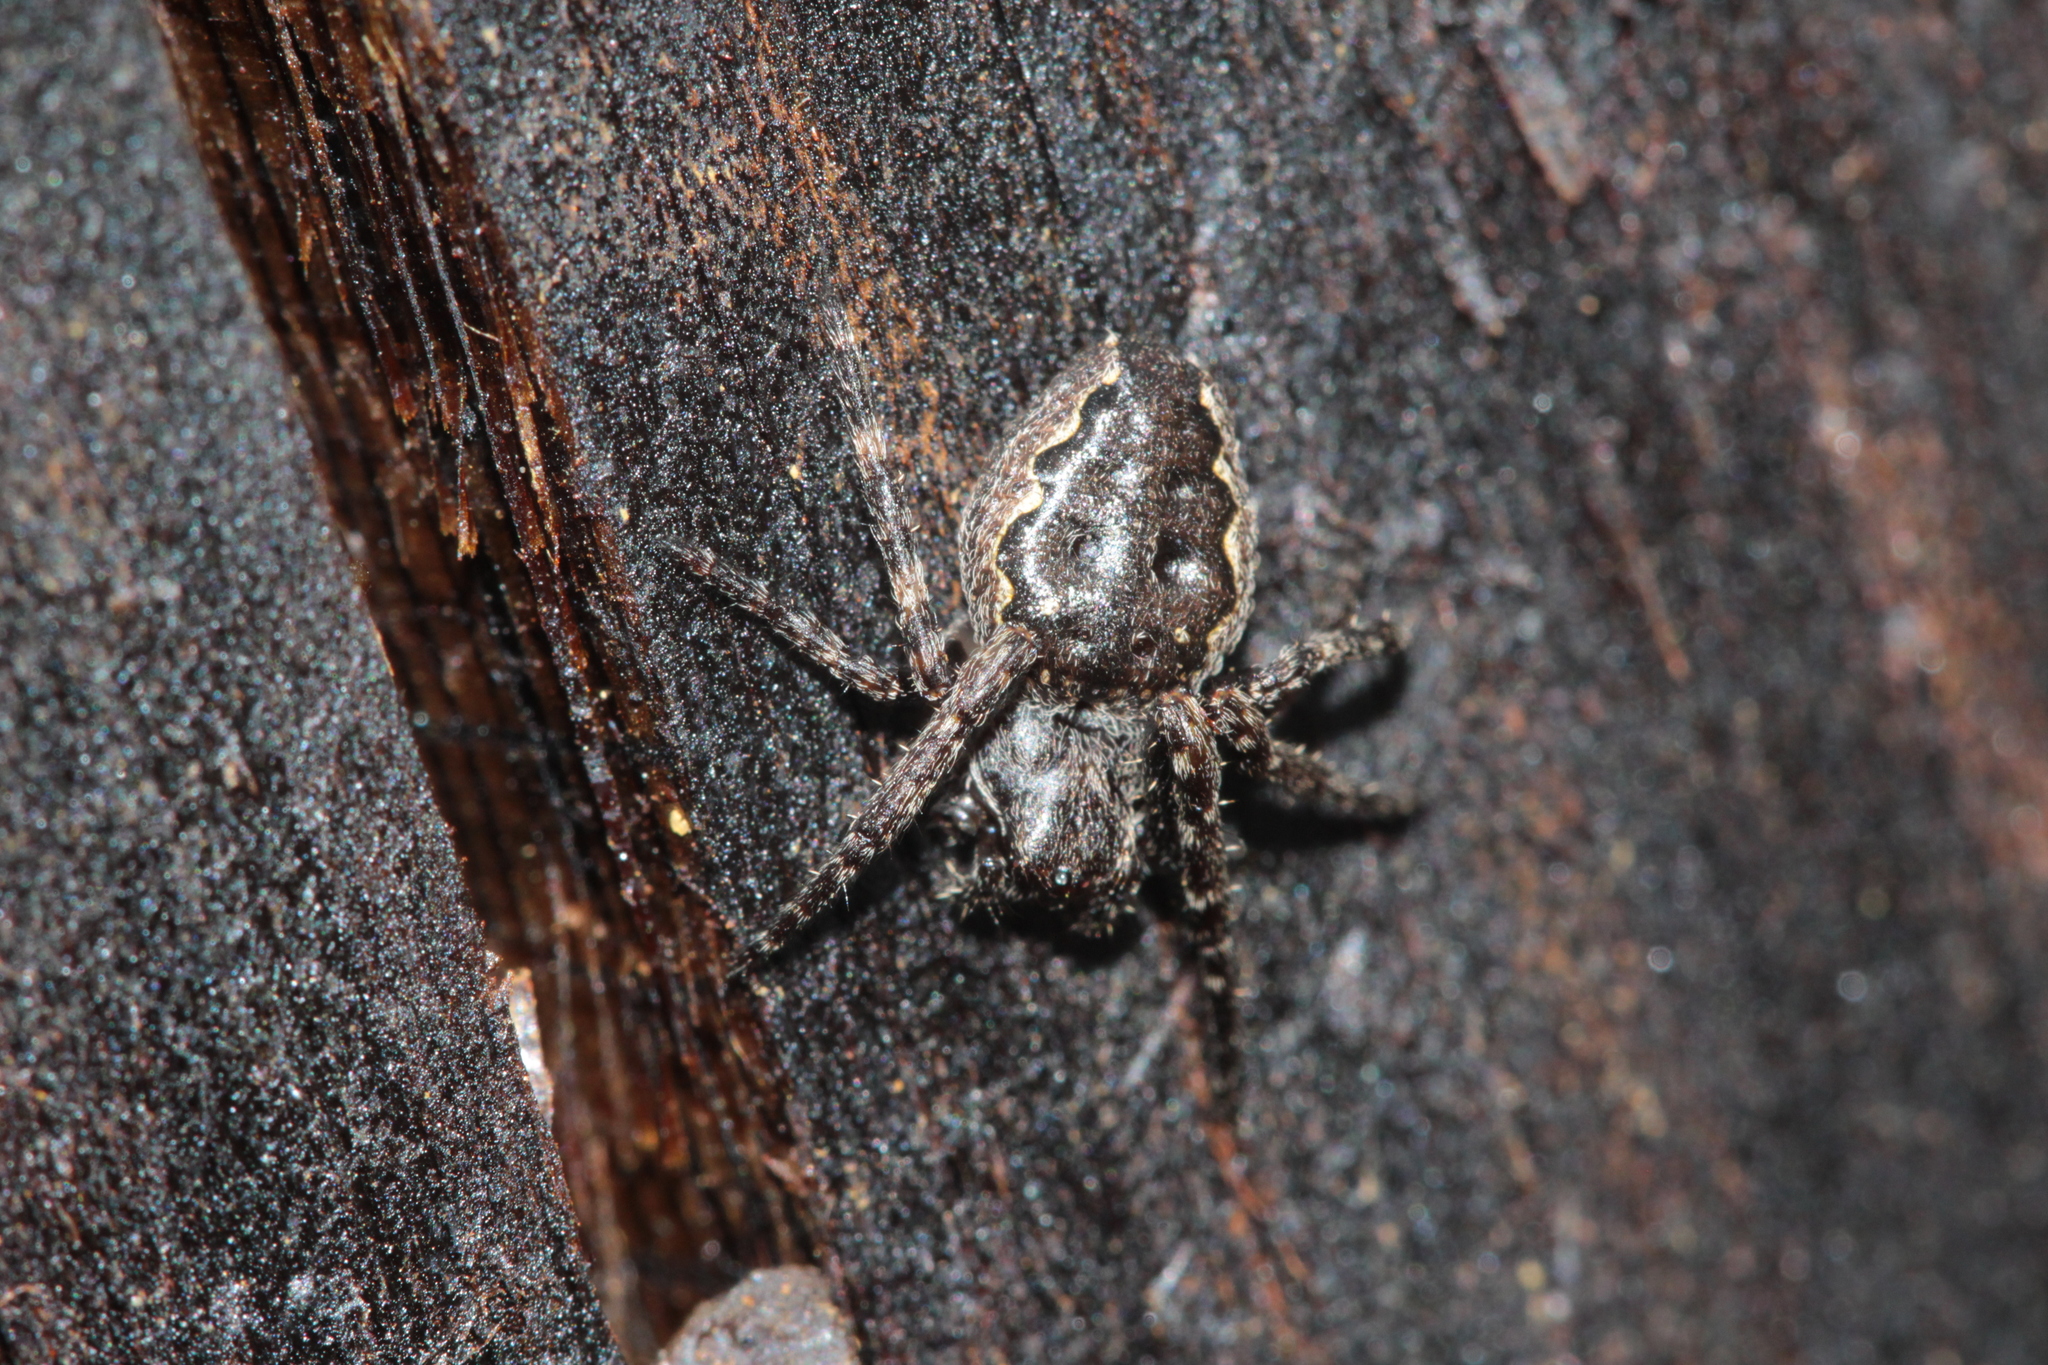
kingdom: Animalia
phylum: Arthropoda
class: Arachnida
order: Araneae
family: Araneidae
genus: Nuctenea
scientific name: Nuctenea umbratica
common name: Toad spider
